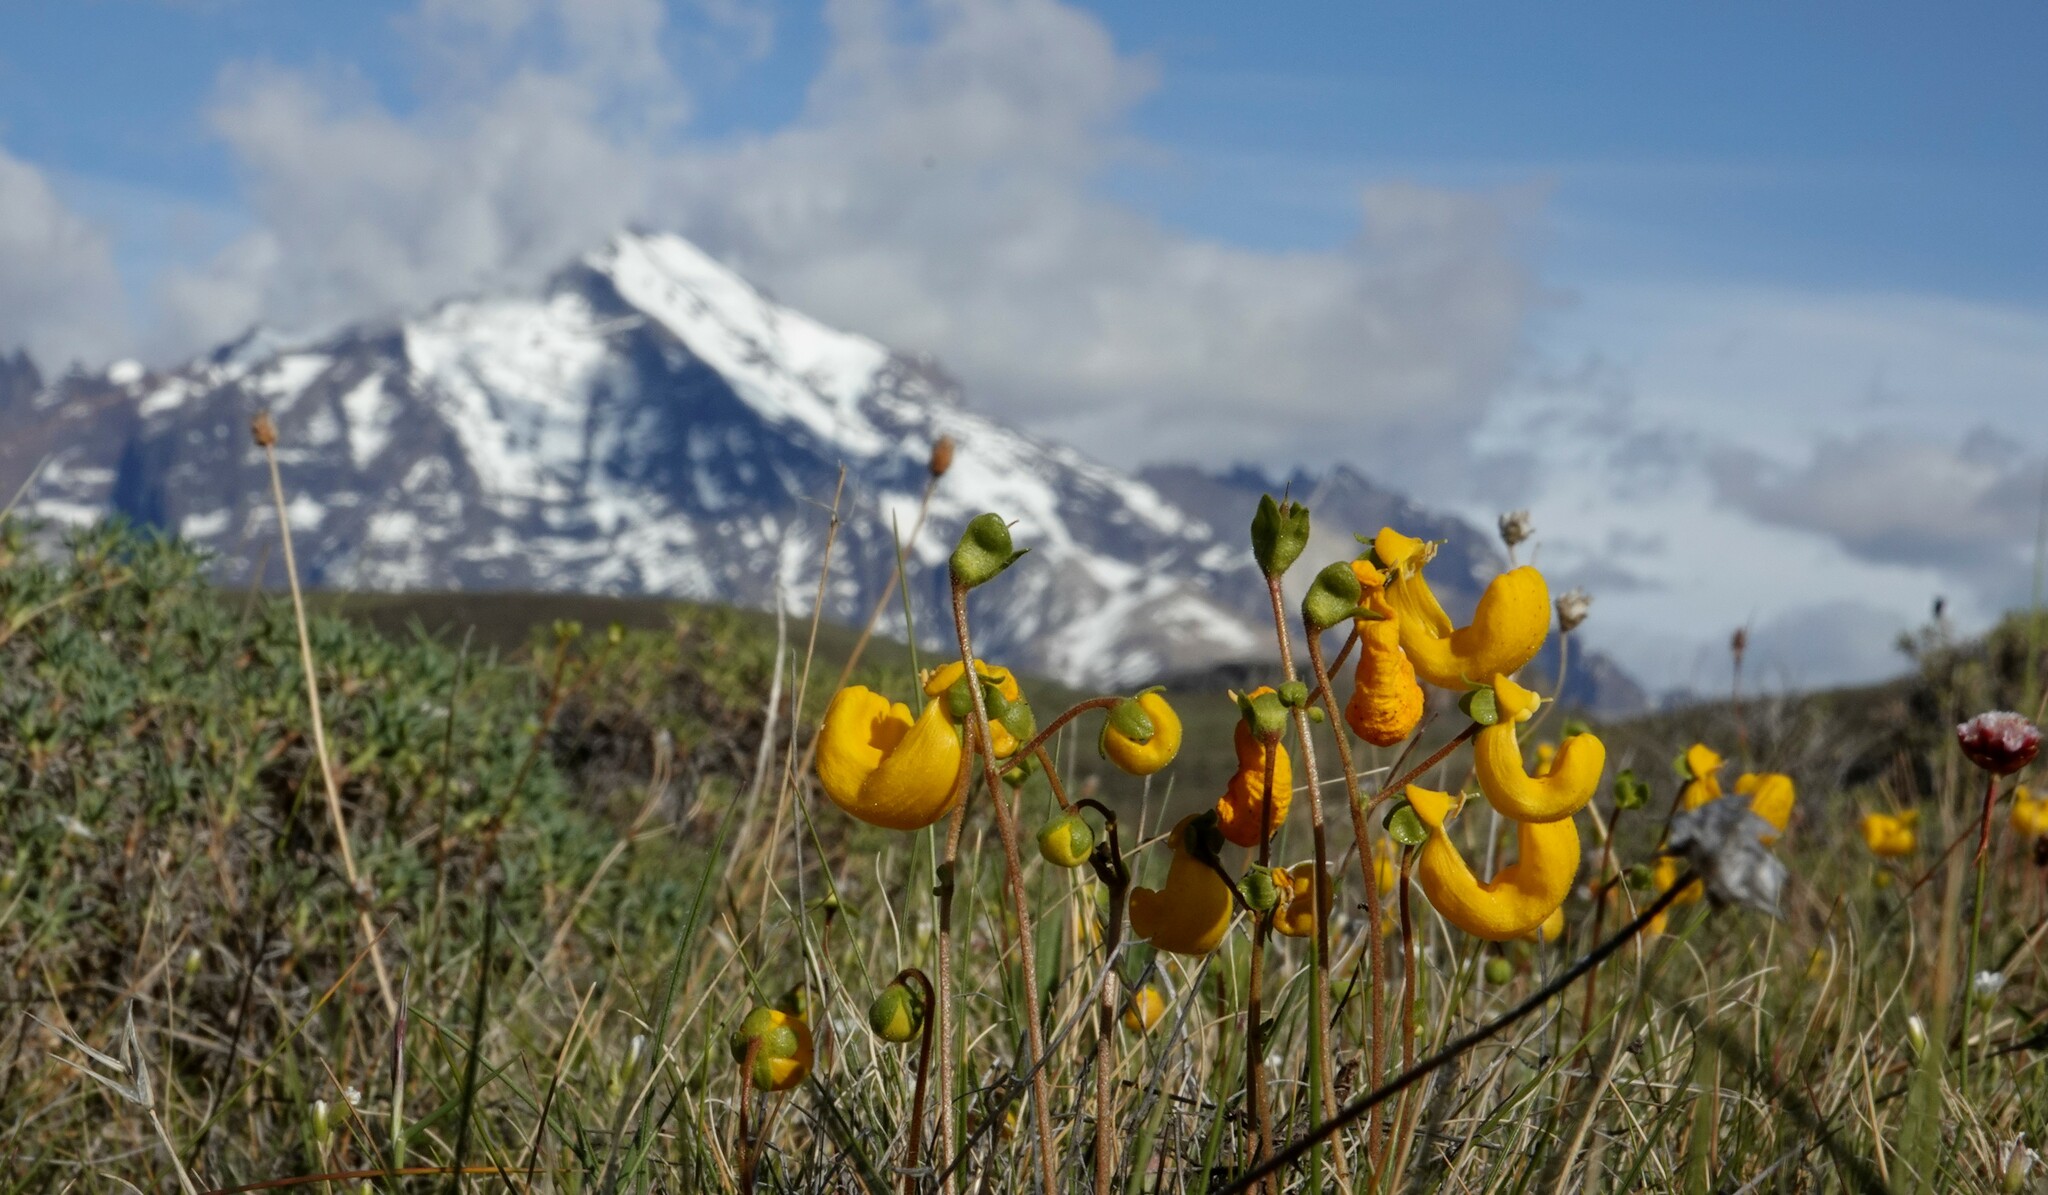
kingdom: Plantae
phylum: Tracheophyta
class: Magnoliopsida
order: Lamiales
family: Calceolariaceae
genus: Calceolaria
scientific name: Calceolaria polyrhiza
